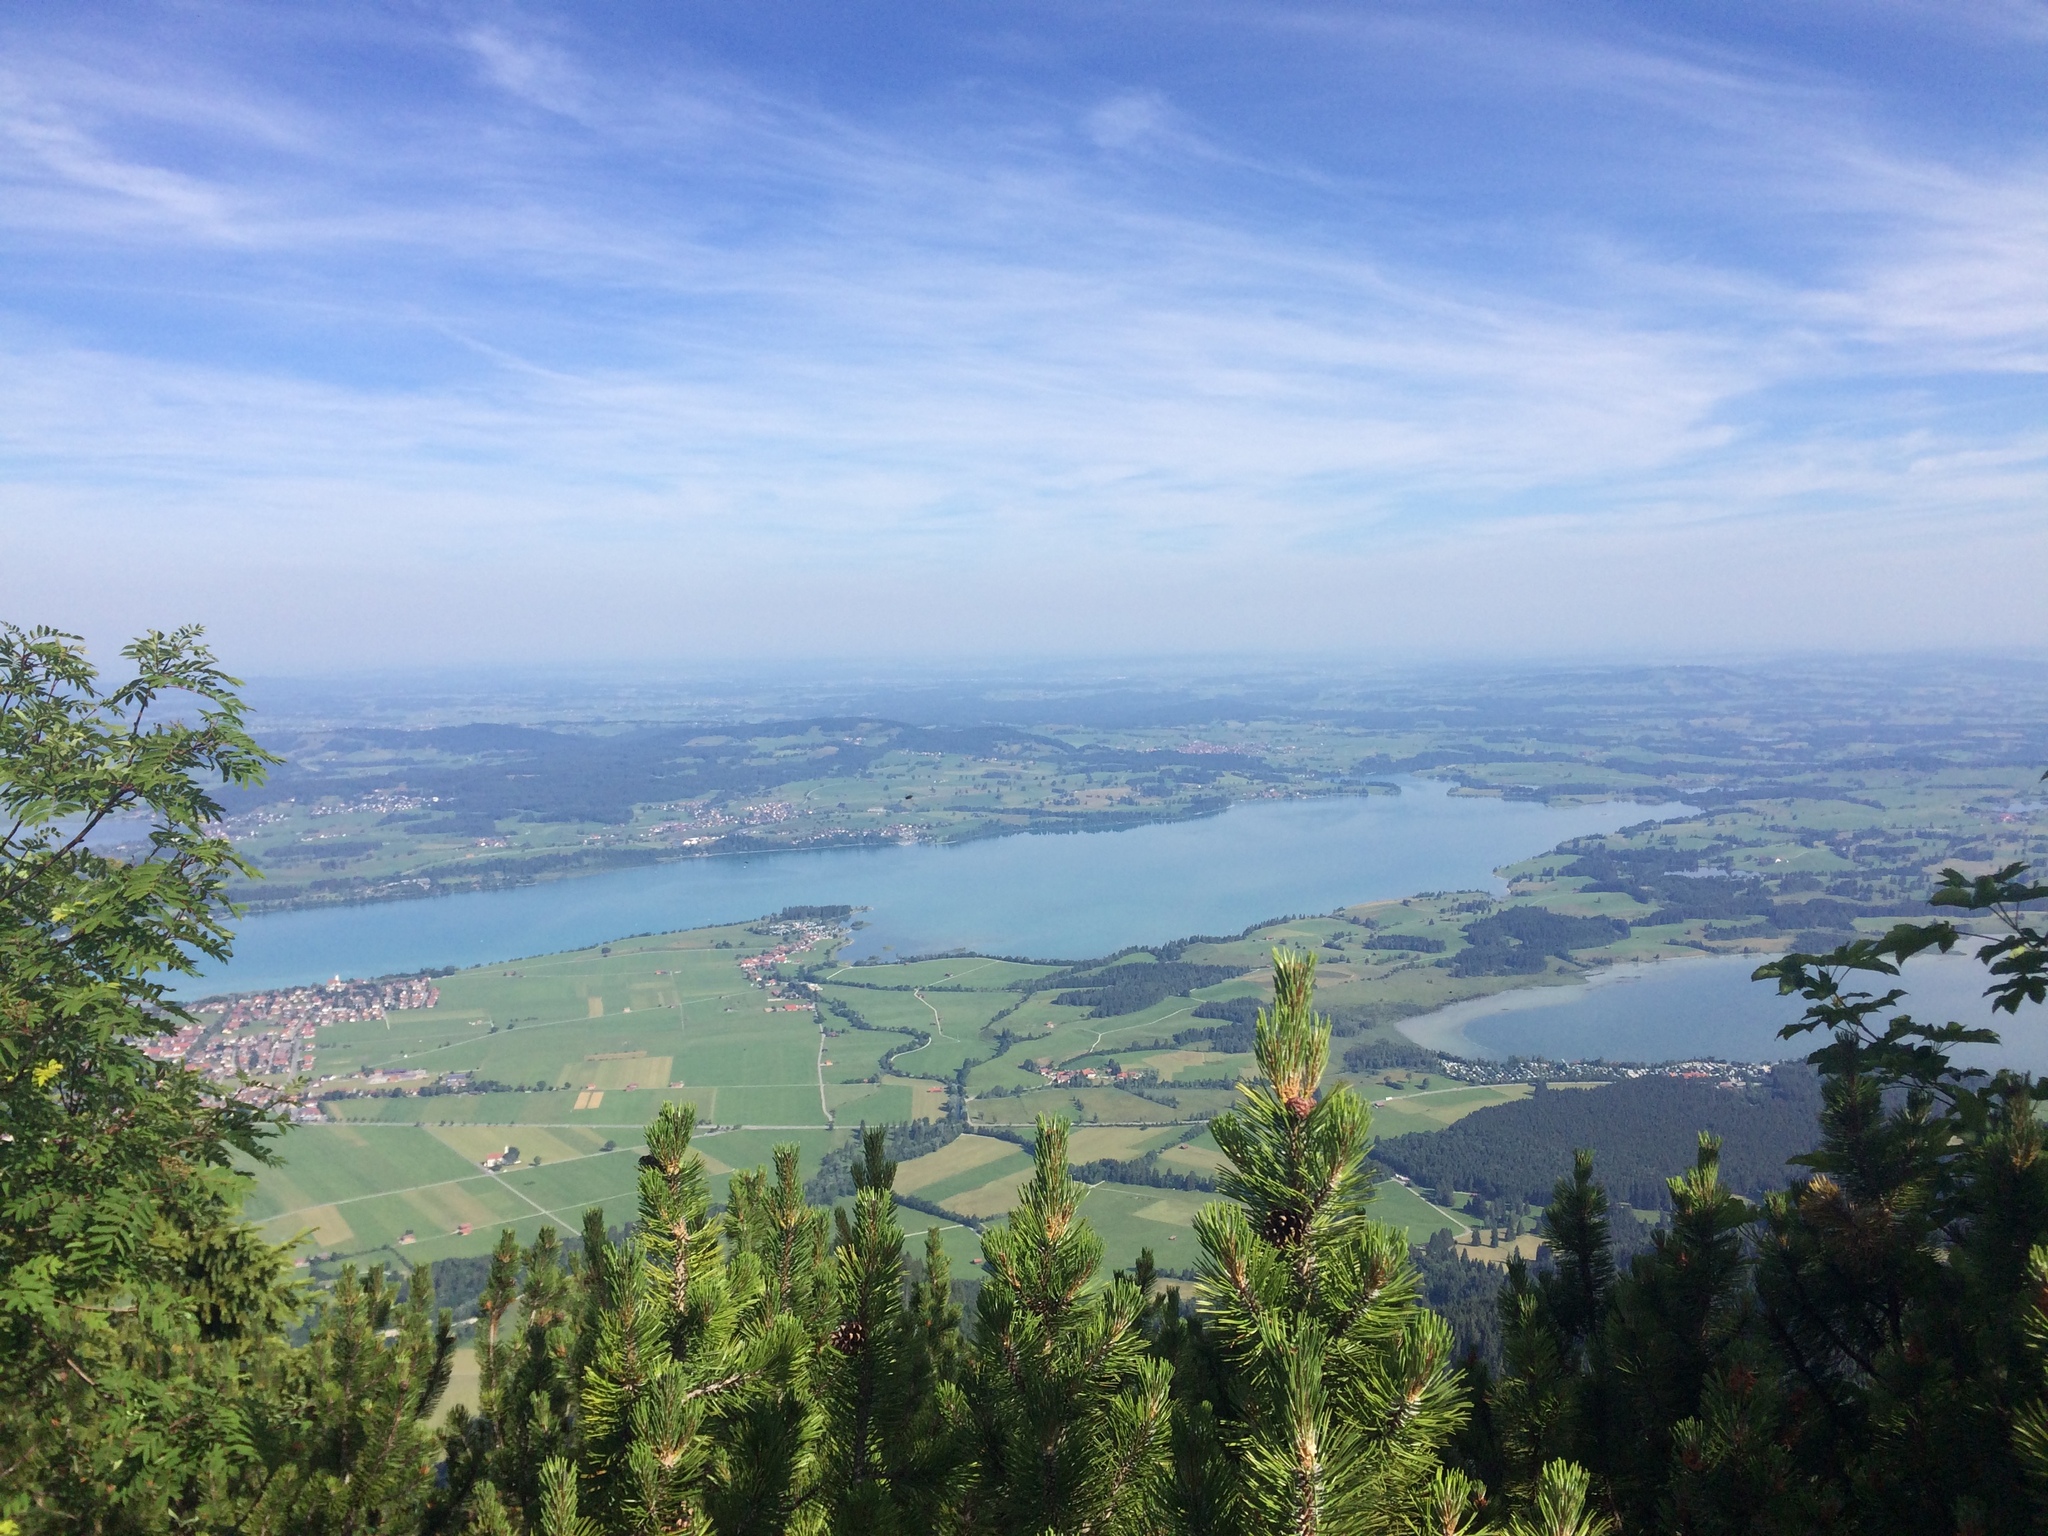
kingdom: Plantae
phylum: Tracheophyta
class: Pinopsida
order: Pinales
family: Pinaceae
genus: Pinus
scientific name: Pinus mugo
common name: Mugo pine
